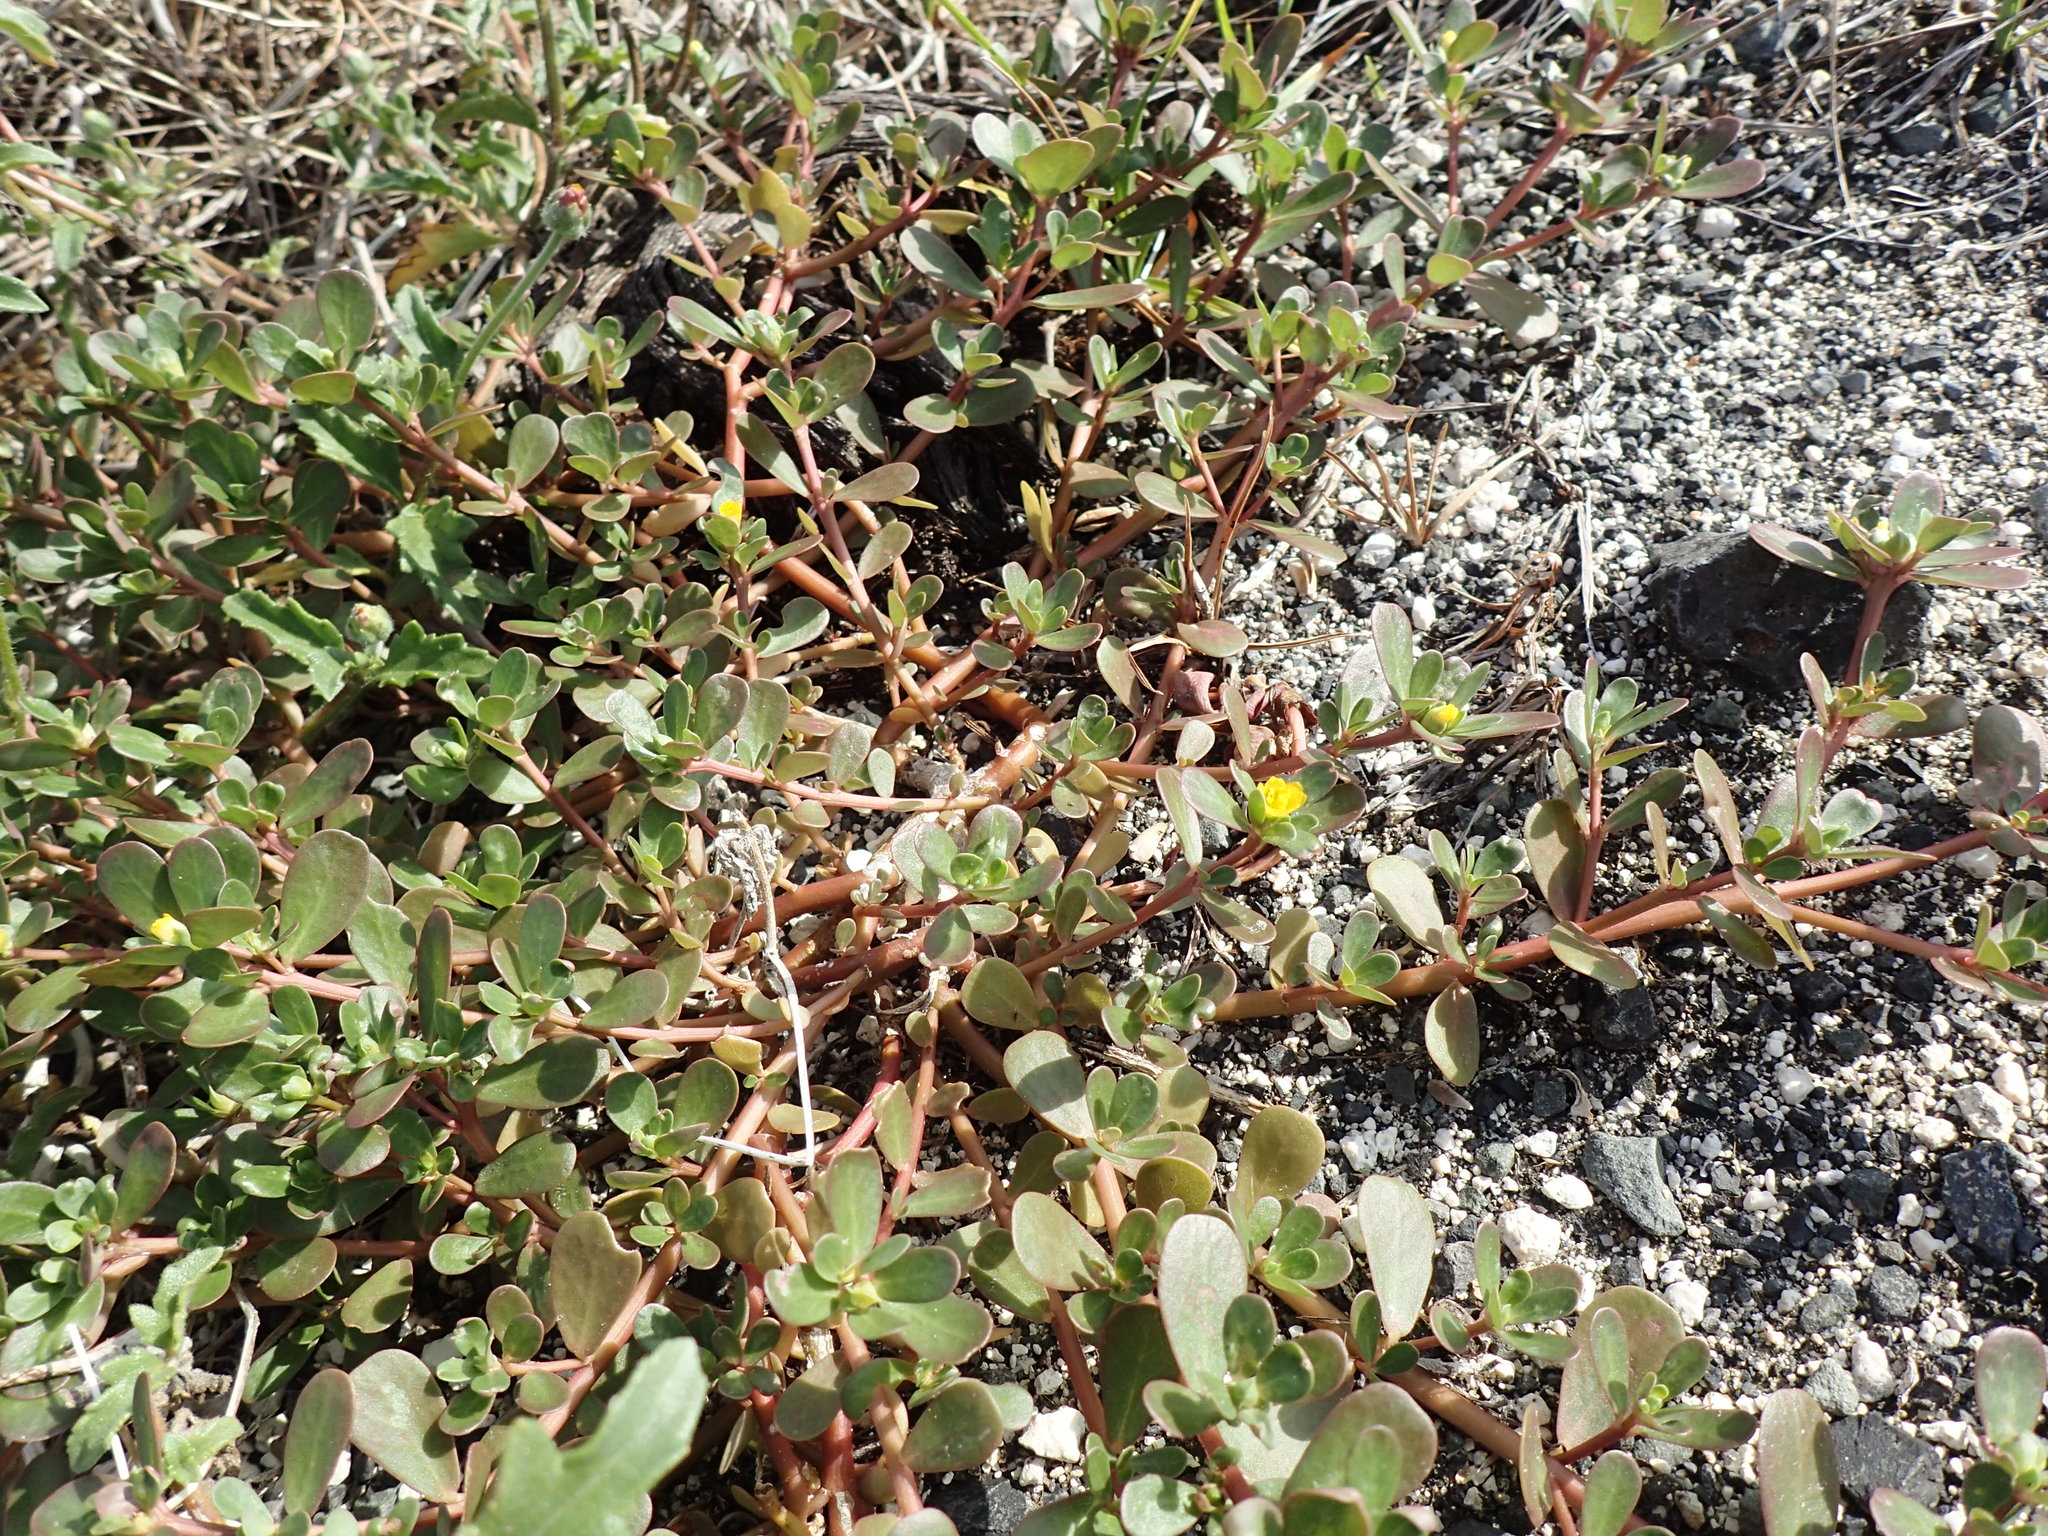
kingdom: Plantae
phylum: Tracheophyta
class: Magnoliopsida
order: Caryophyllales
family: Portulacaceae
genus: Portulaca
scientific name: Portulaca oleracea
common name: Common purslane
